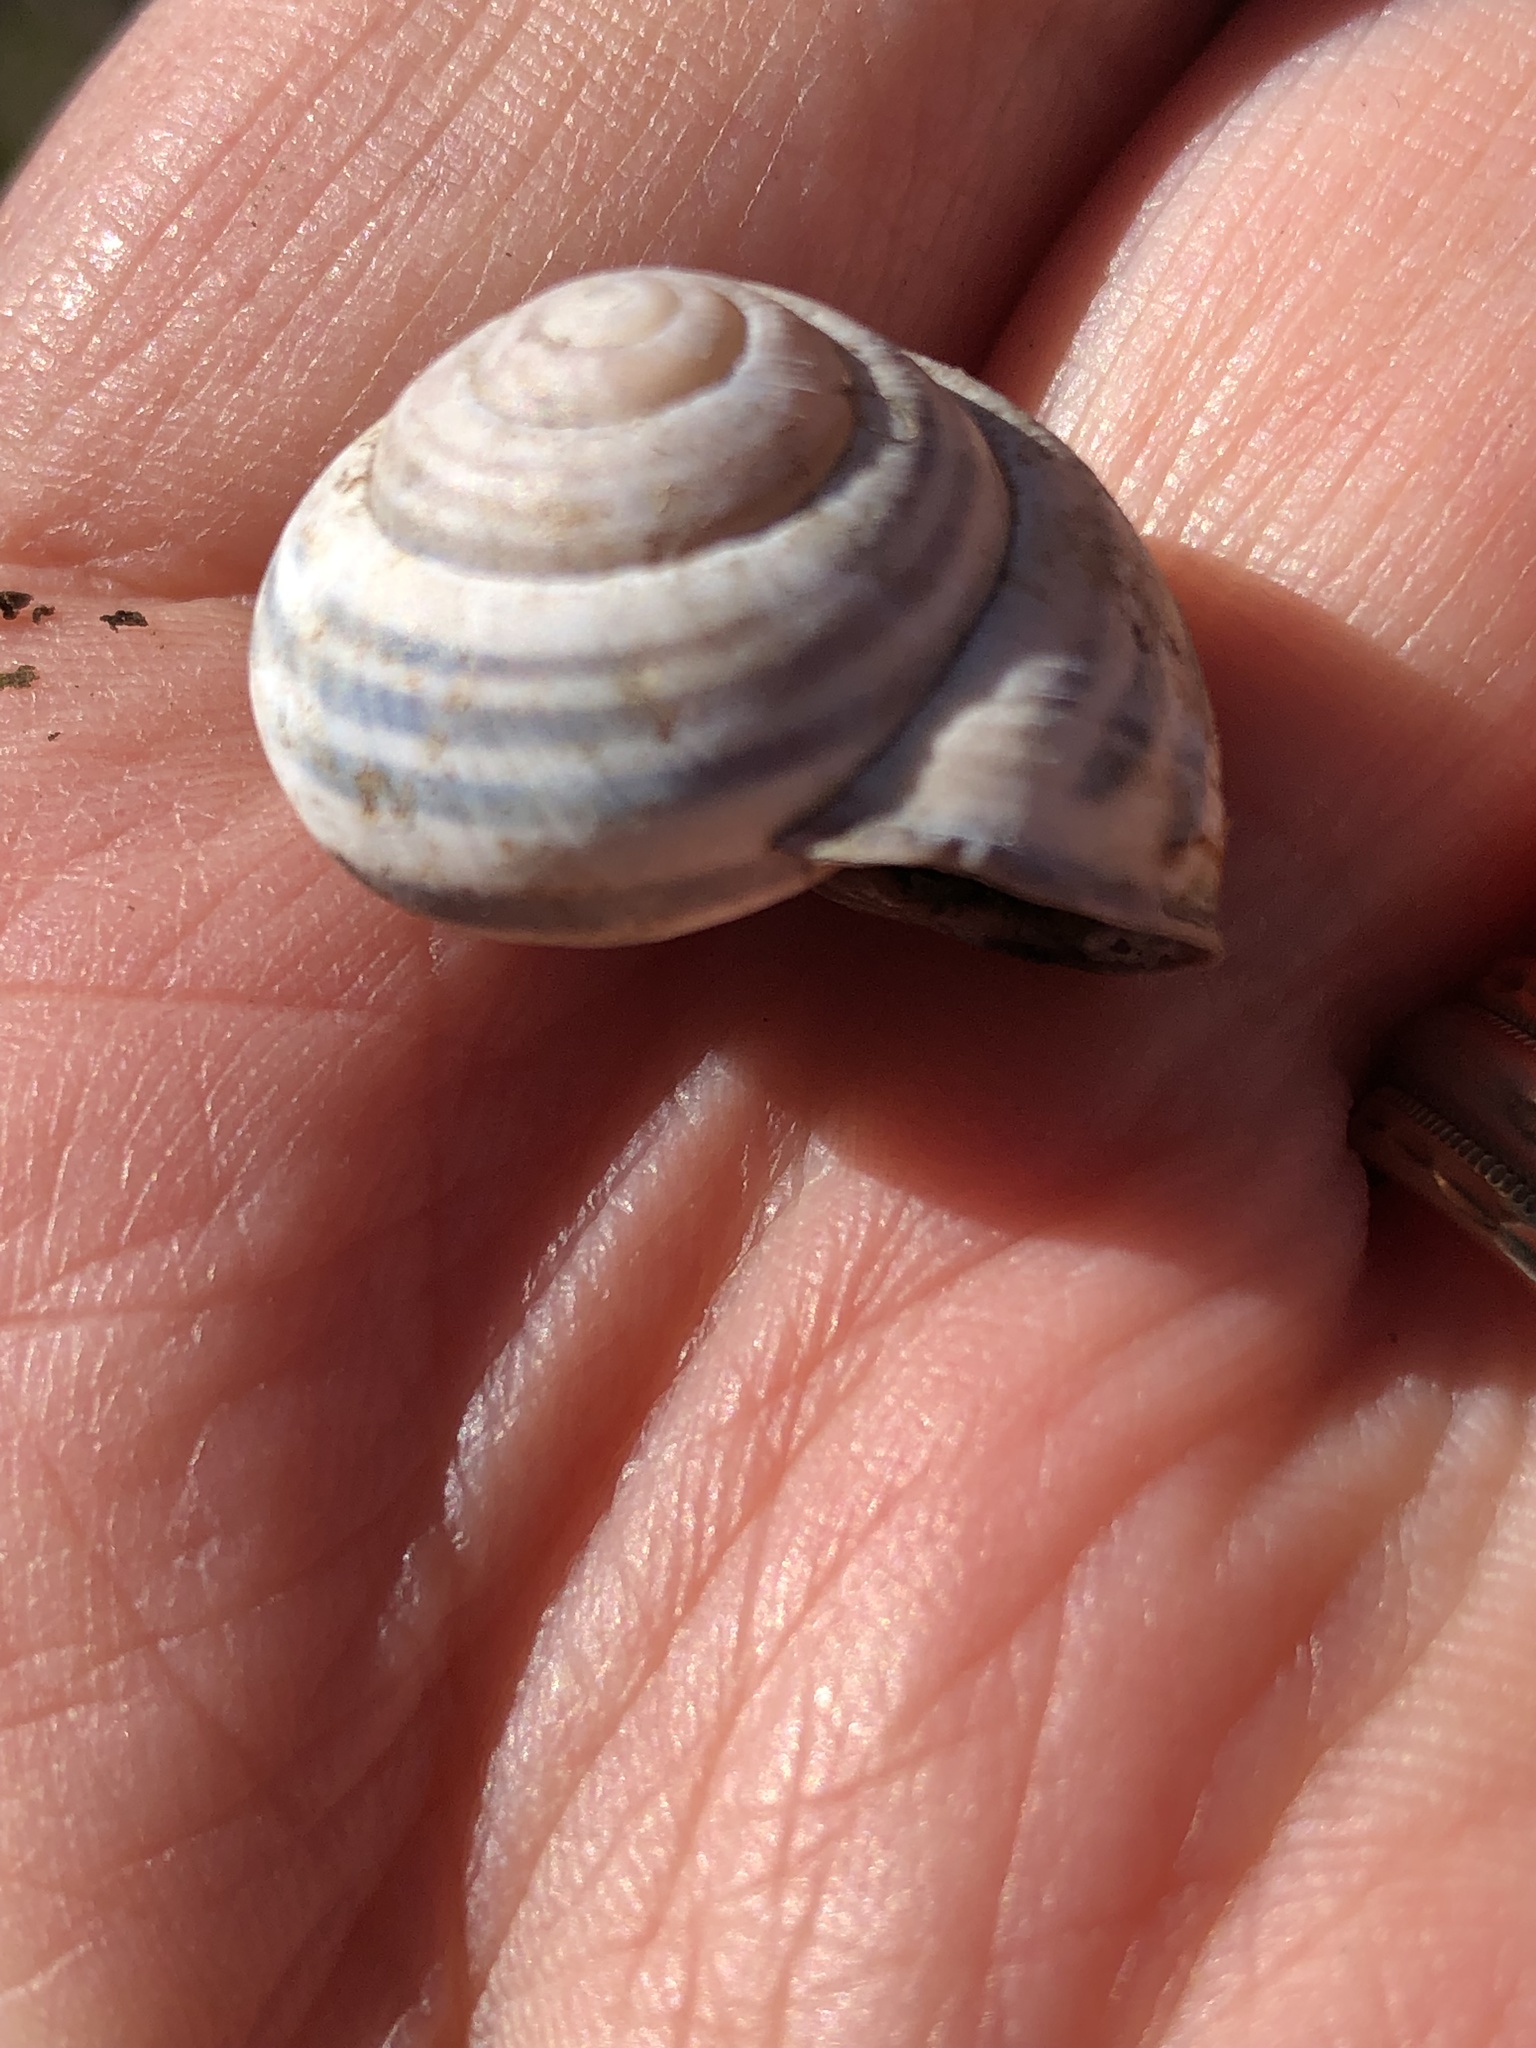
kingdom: Animalia
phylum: Mollusca
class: Gastropoda
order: Stylommatophora
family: Helicidae
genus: Cepaea
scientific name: Cepaea nemoralis
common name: Grovesnail
